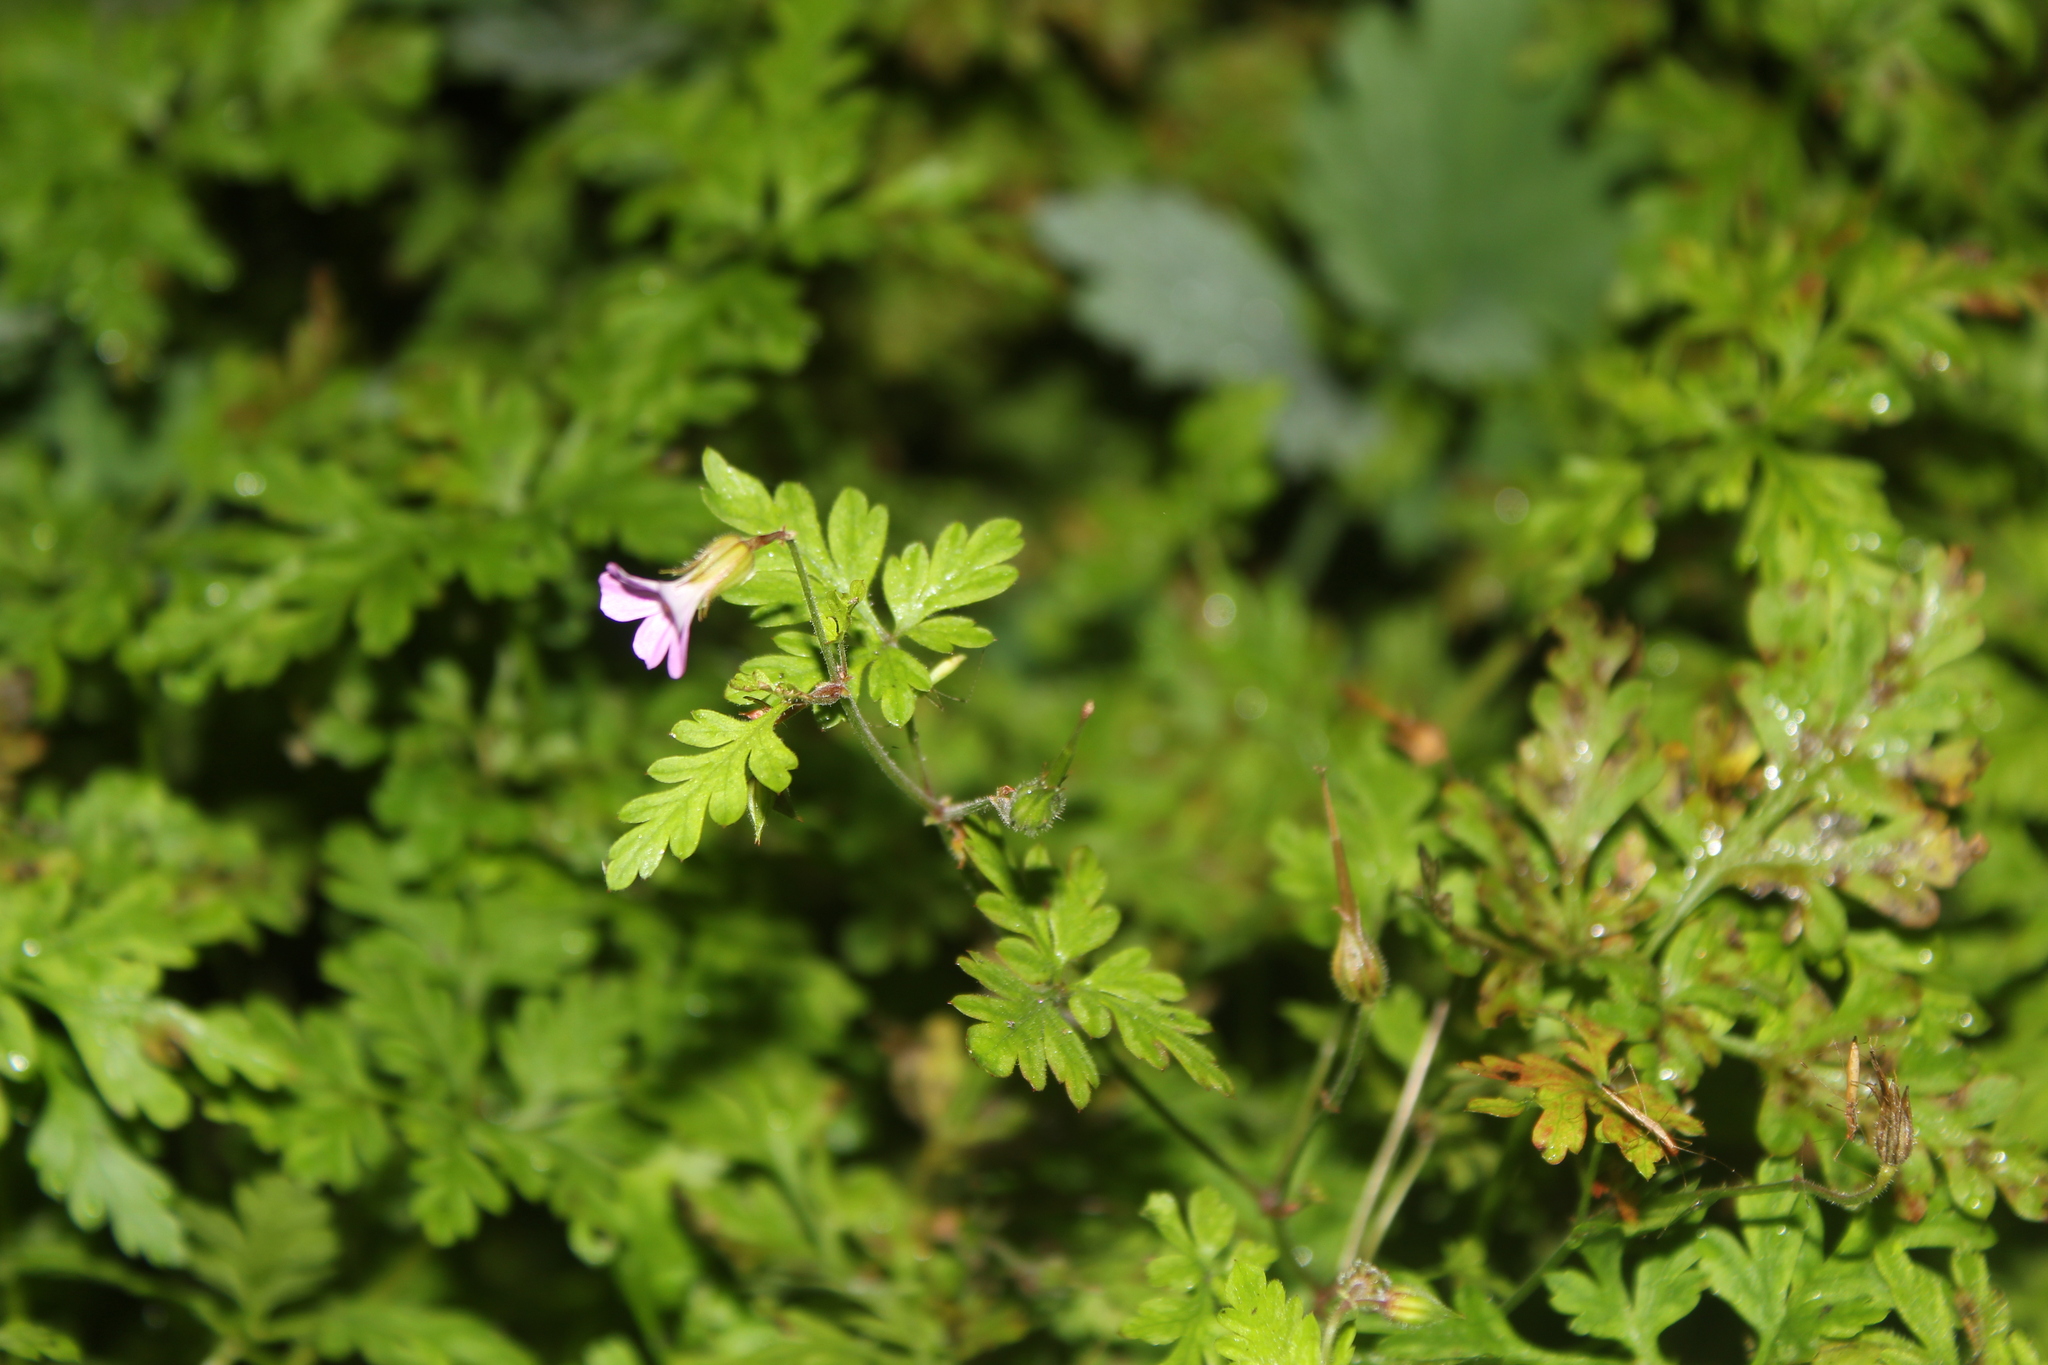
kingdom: Plantae
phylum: Tracheophyta
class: Magnoliopsida
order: Geraniales
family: Geraniaceae
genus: Geranium
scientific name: Geranium robertianum
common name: Herb-robert
